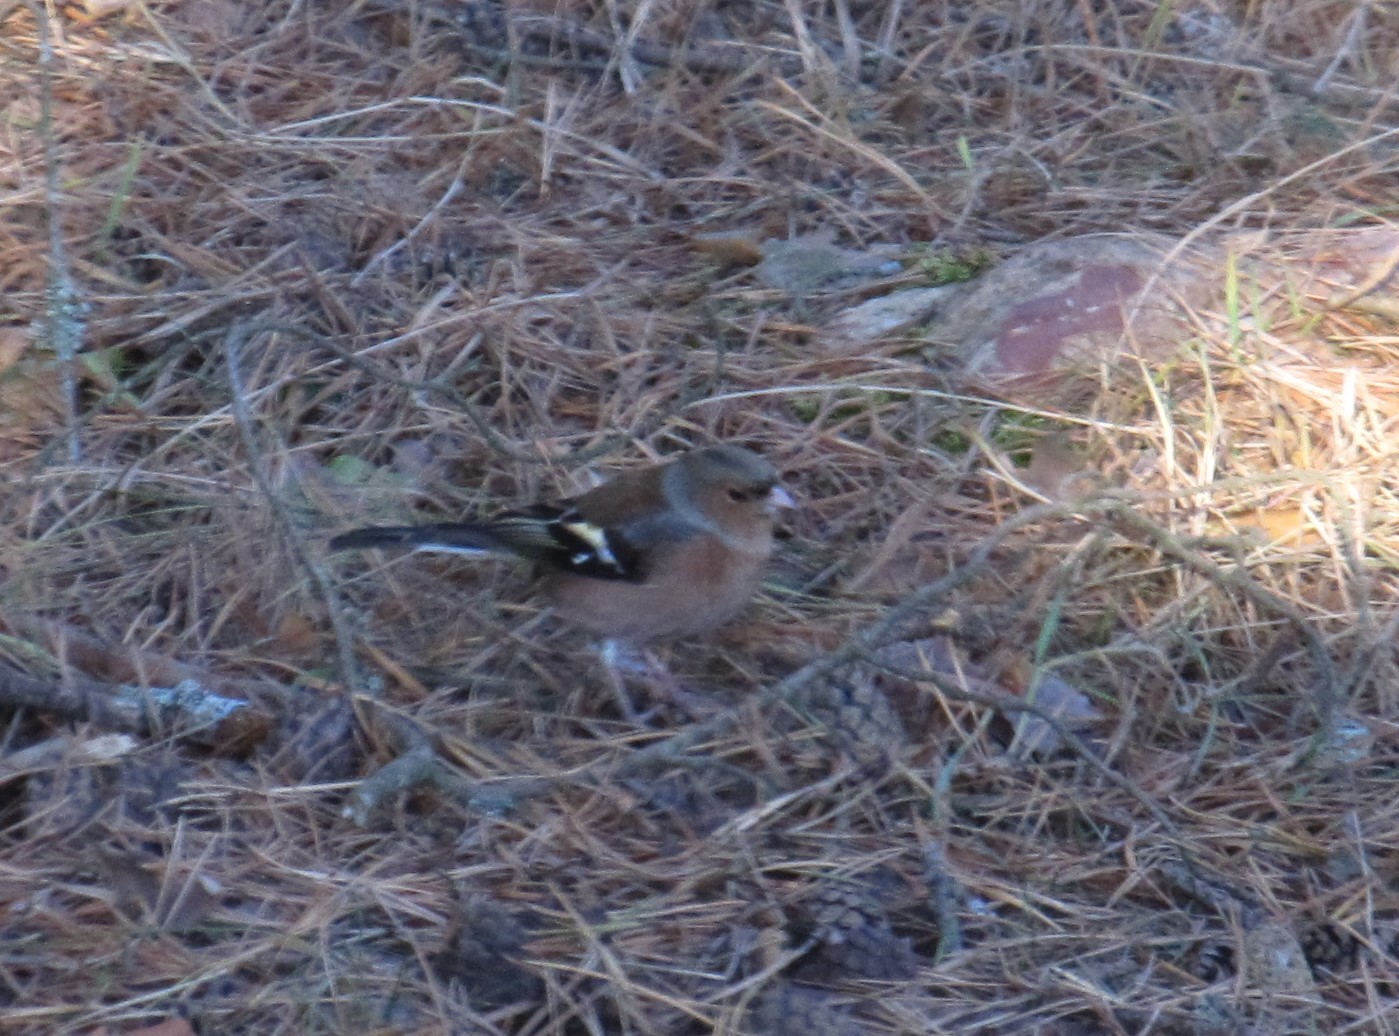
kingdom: Animalia
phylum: Chordata
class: Aves
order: Passeriformes
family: Fringillidae
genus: Fringilla
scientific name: Fringilla coelebs
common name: Common chaffinch
